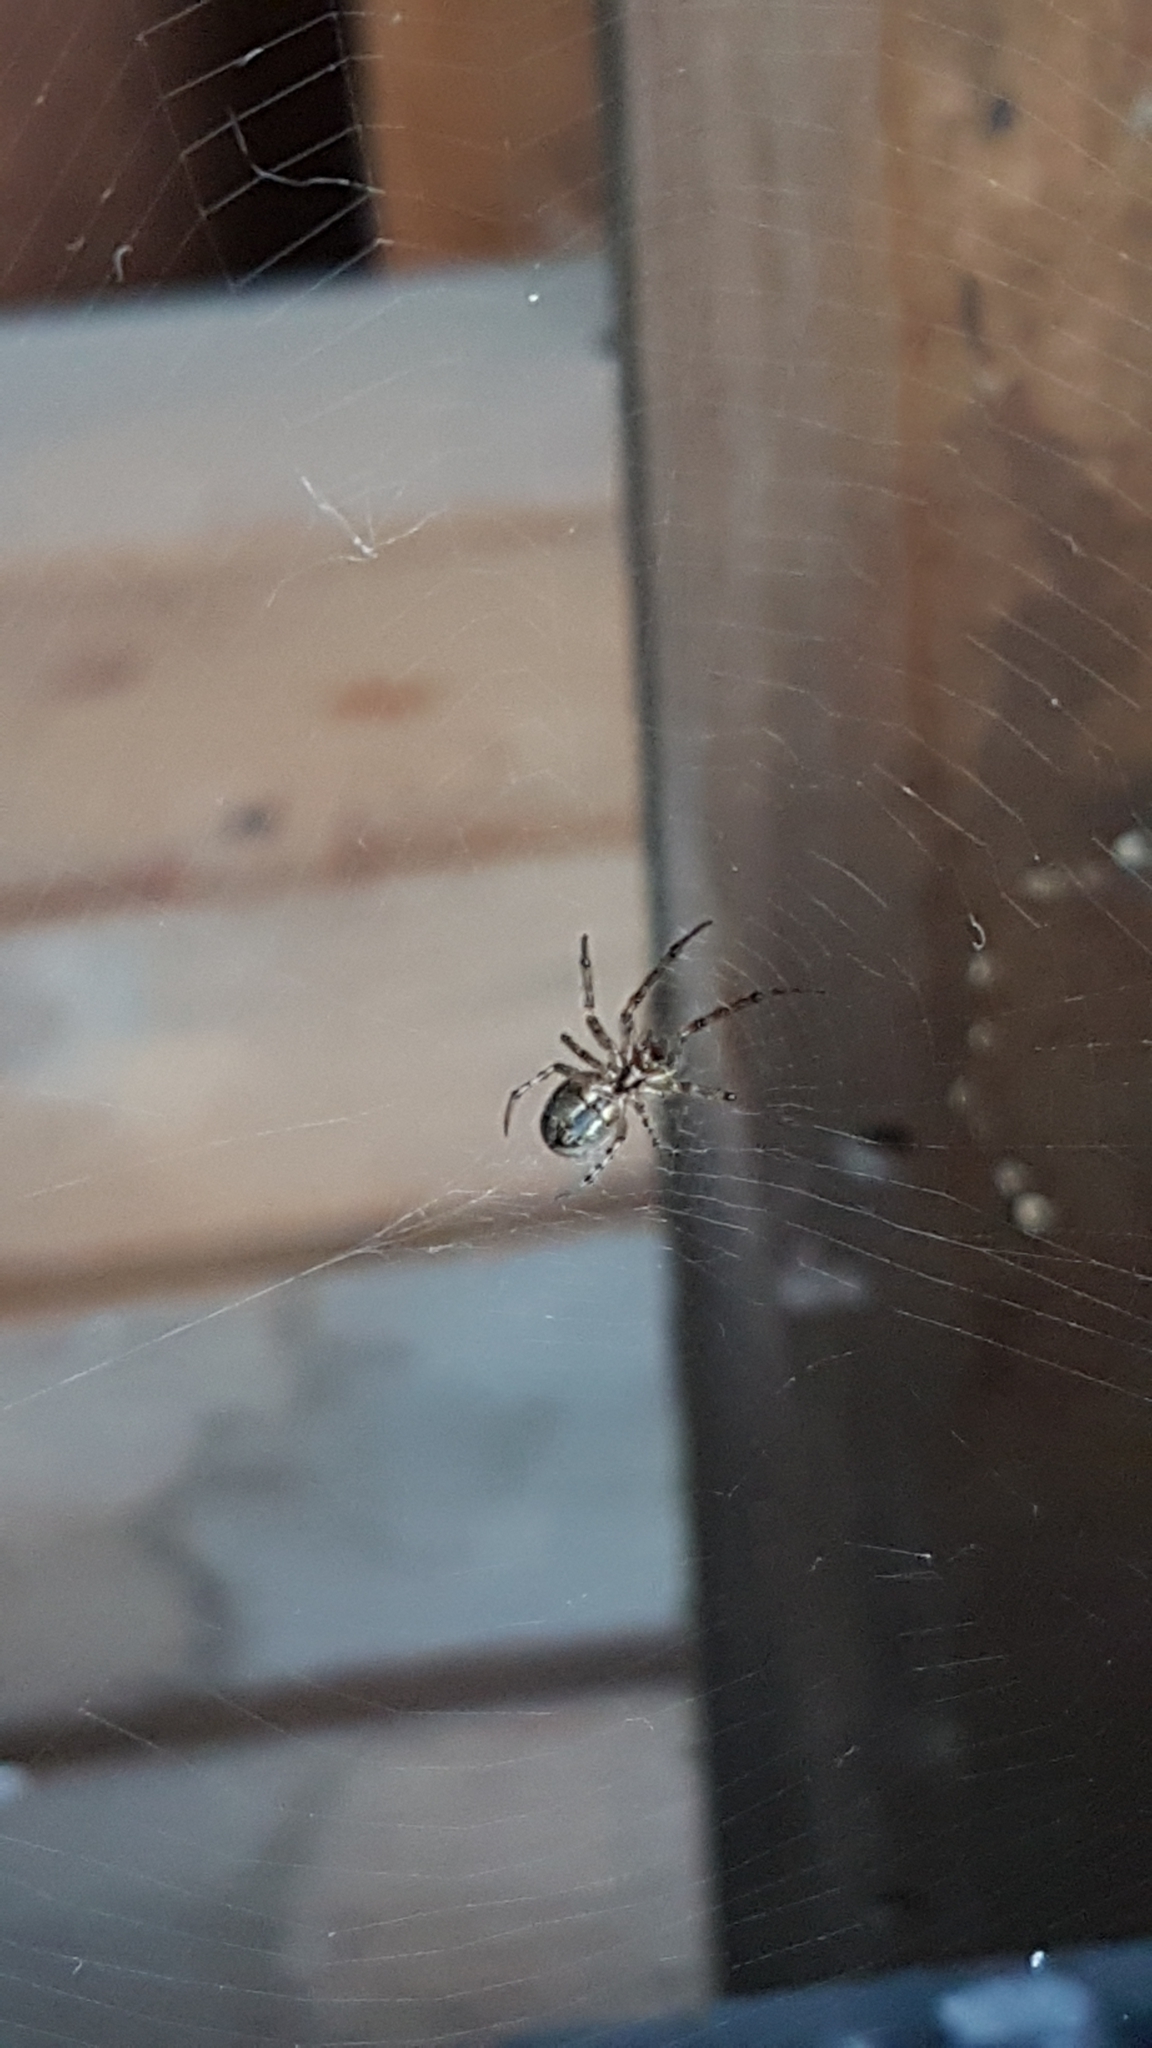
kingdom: Animalia
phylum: Arthropoda
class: Arachnida
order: Araneae
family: Araneidae
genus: Zygiella
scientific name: Zygiella x-notata
